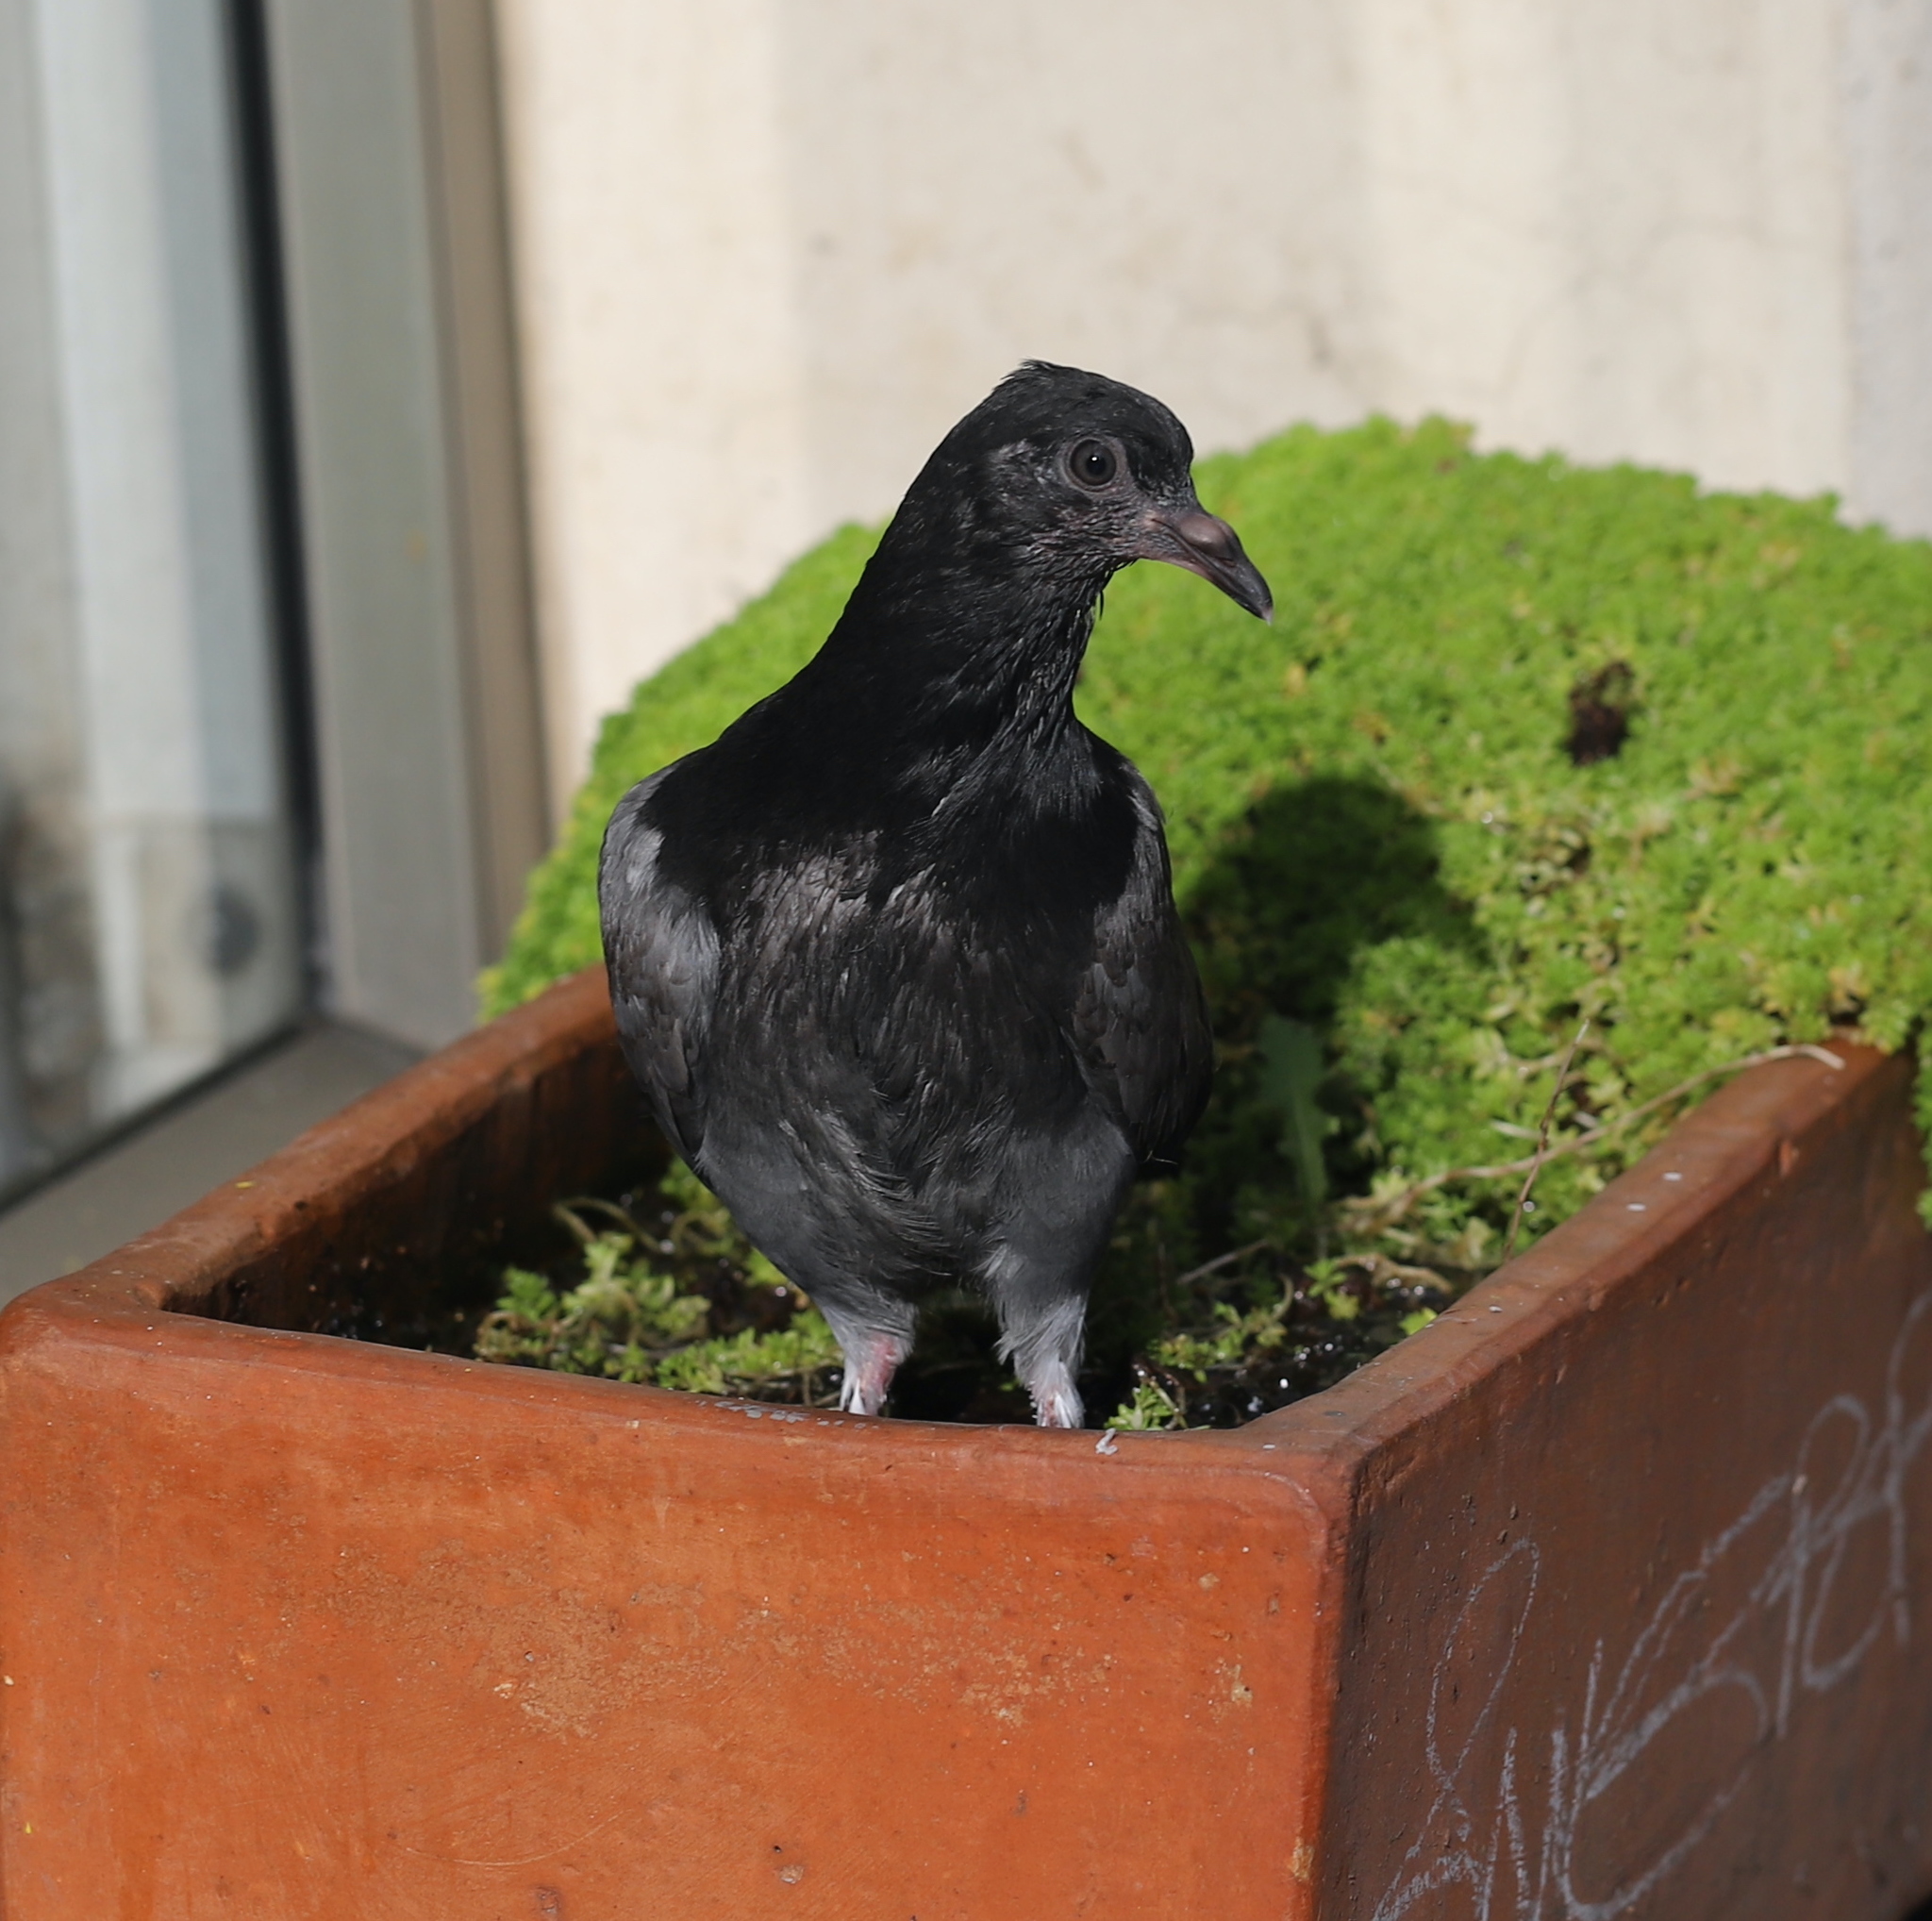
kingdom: Animalia
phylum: Chordata
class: Aves
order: Columbiformes
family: Columbidae
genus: Columba
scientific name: Columba livia
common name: Rock pigeon
